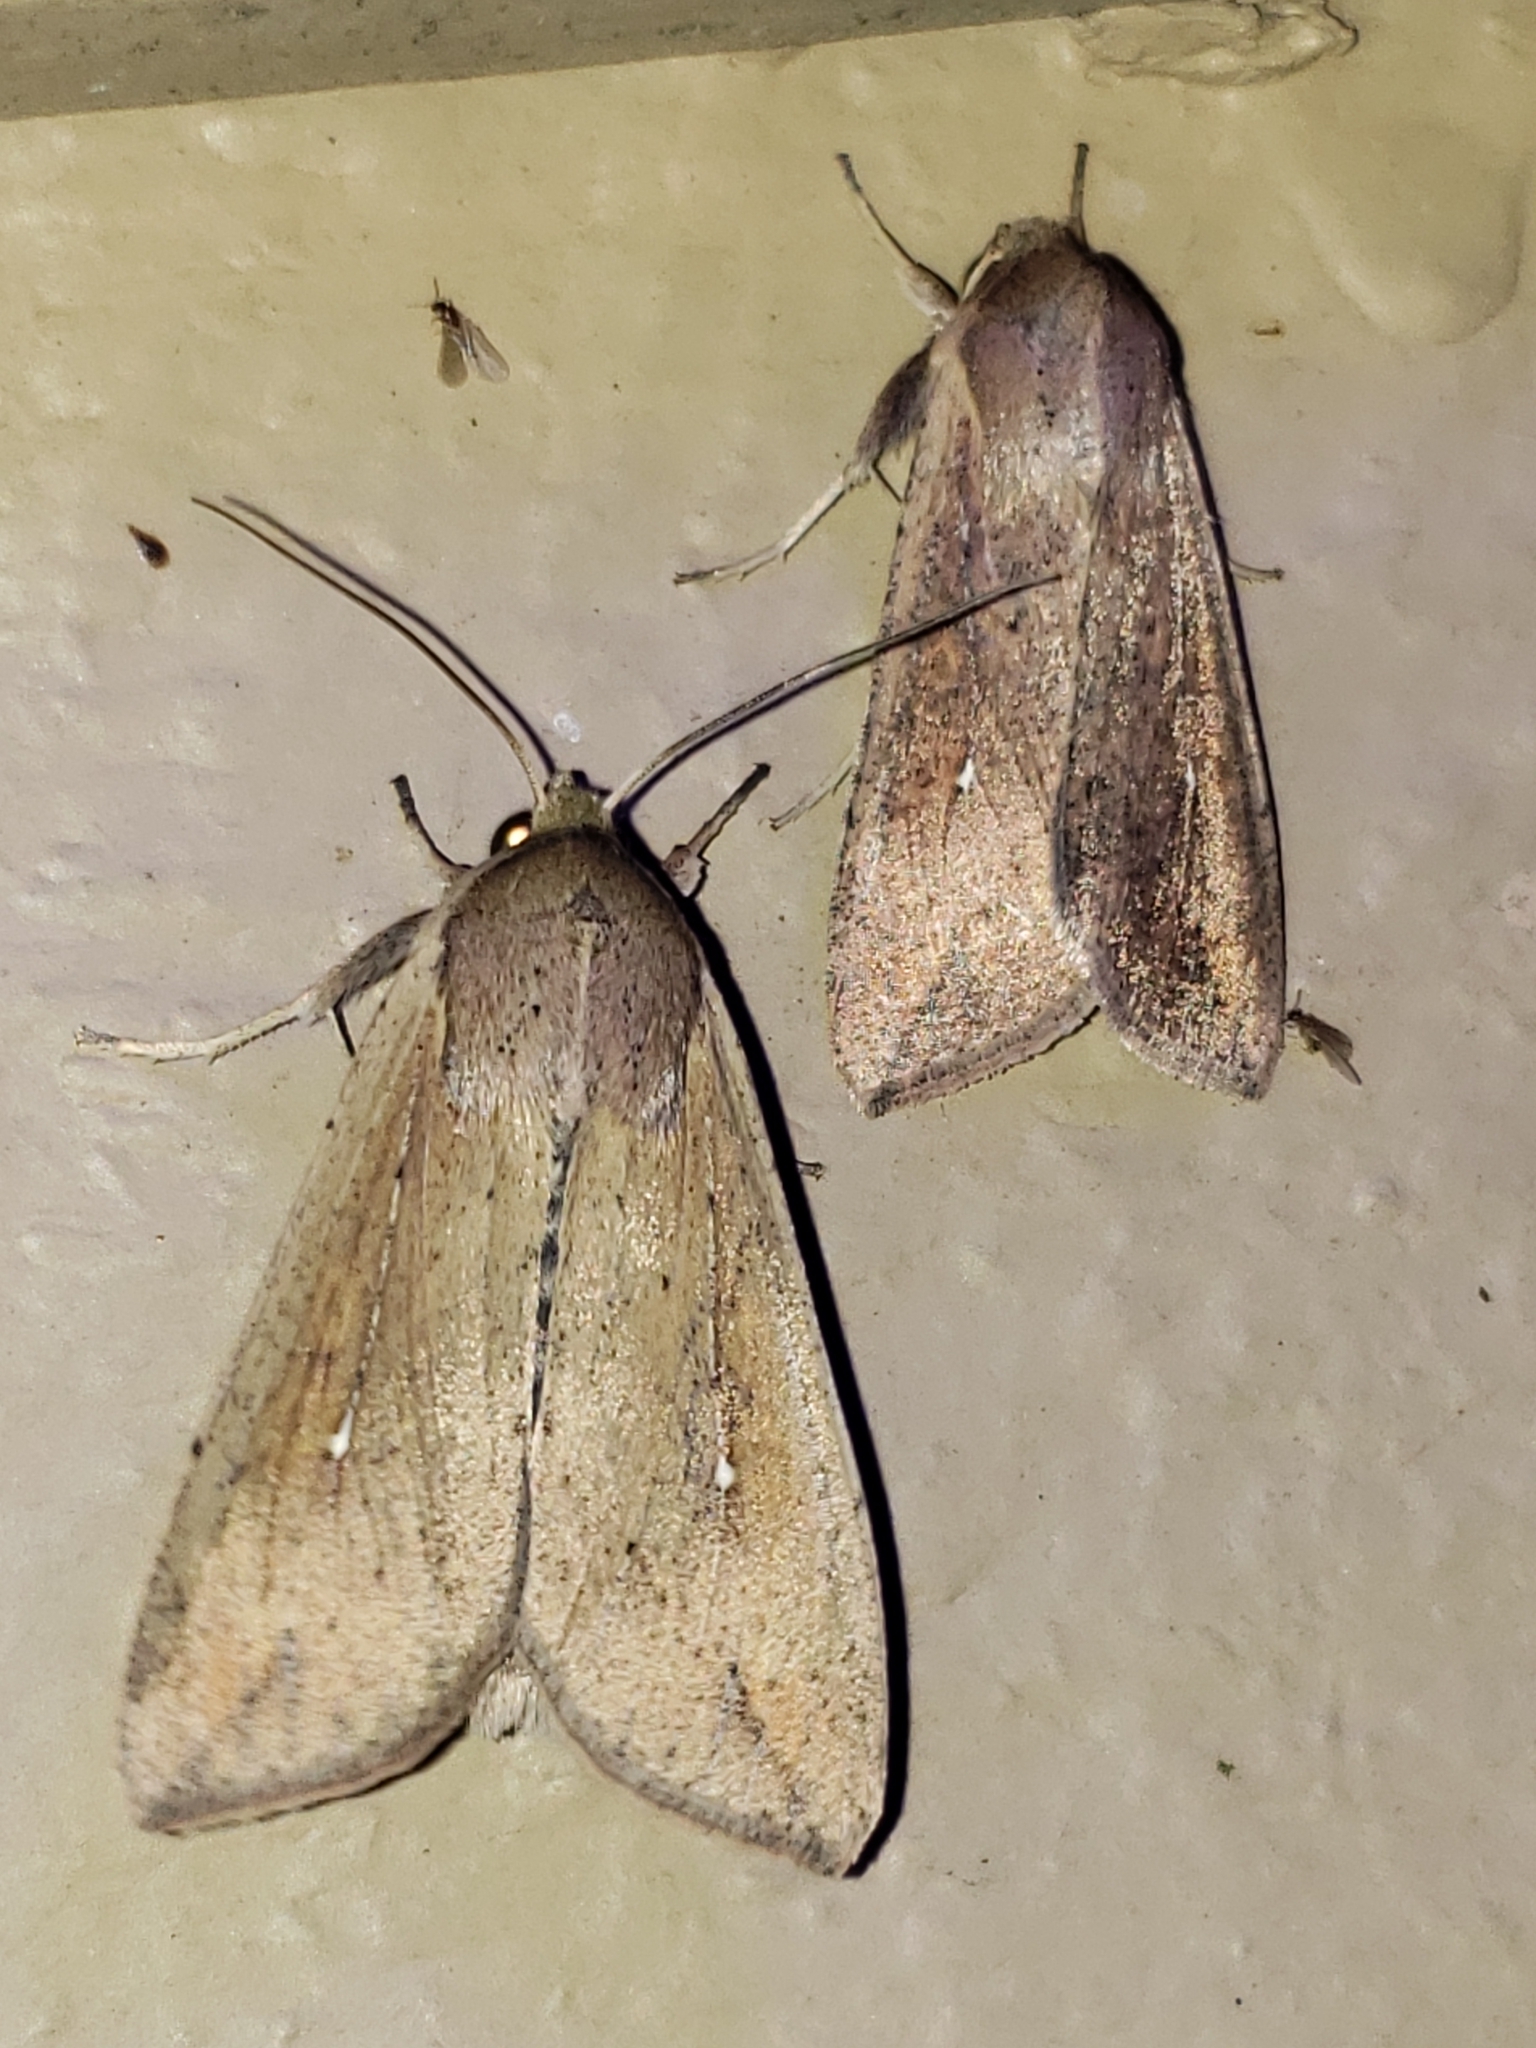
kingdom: Animalia
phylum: Arthropoda
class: Insecta
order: Lepidoptera
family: Noctuidae
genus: Mythimna
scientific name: Mythimna unipuncta
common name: White-speck
